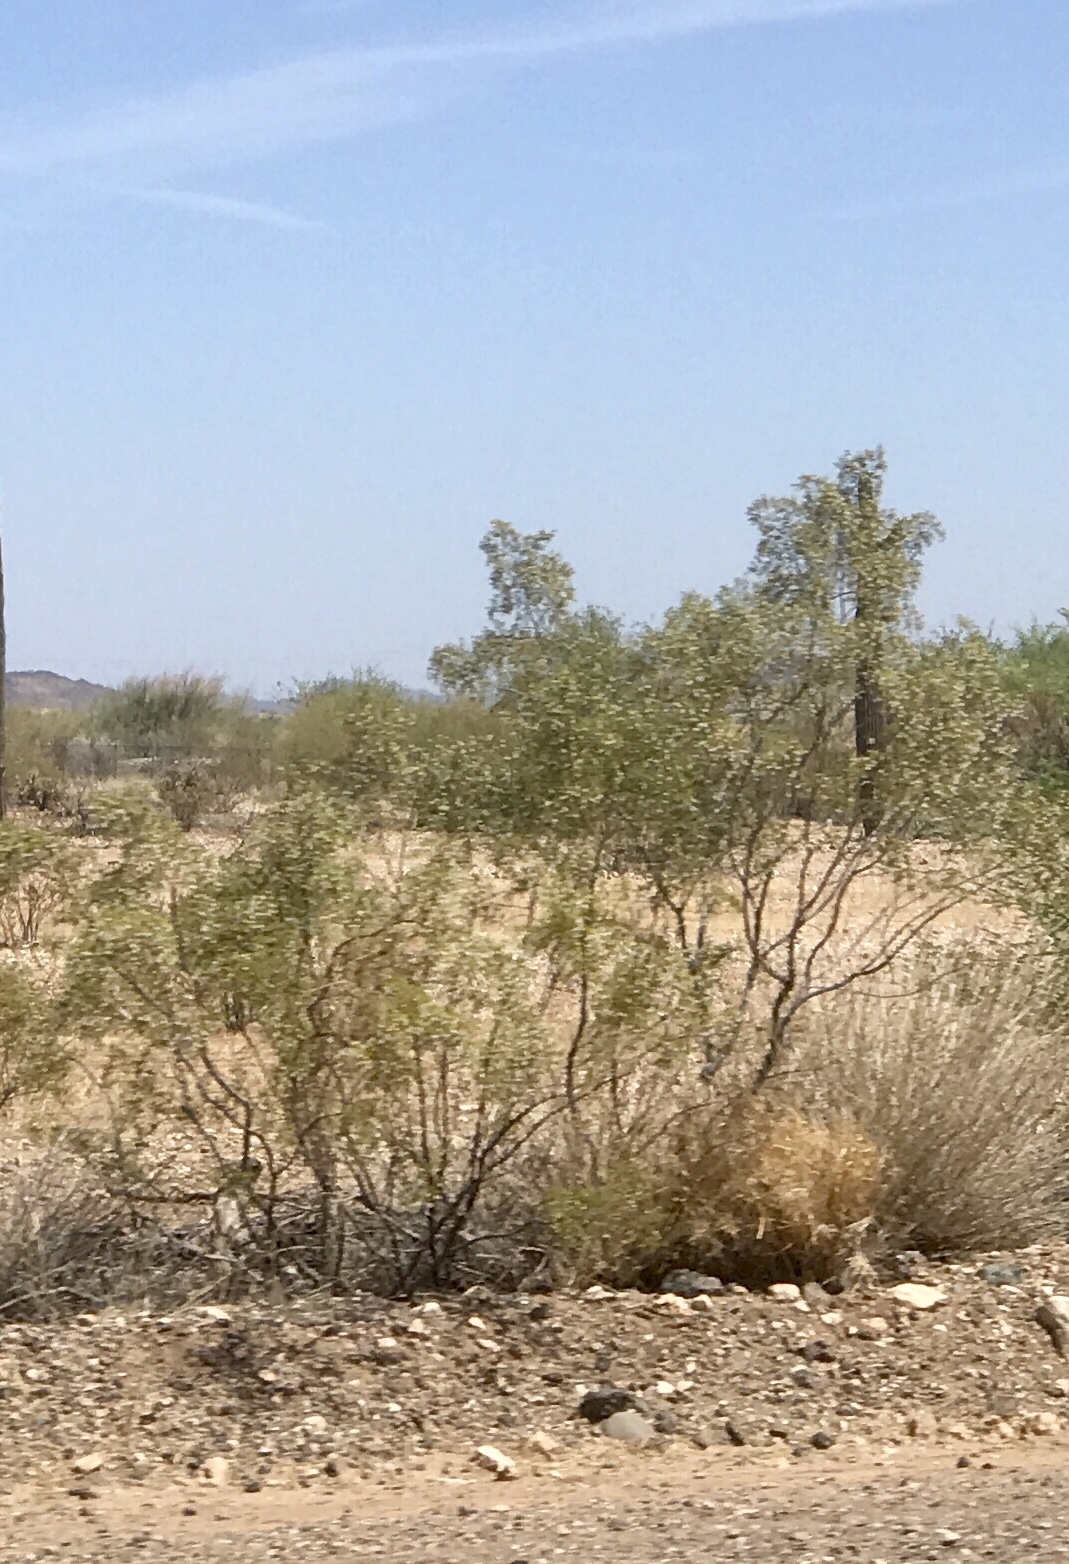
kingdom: Plantae
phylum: Tracheophyta
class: Magnoliopsida
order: Zygophyllales
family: Zygophyllaceae
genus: Larrea
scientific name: Larrea tridentata
